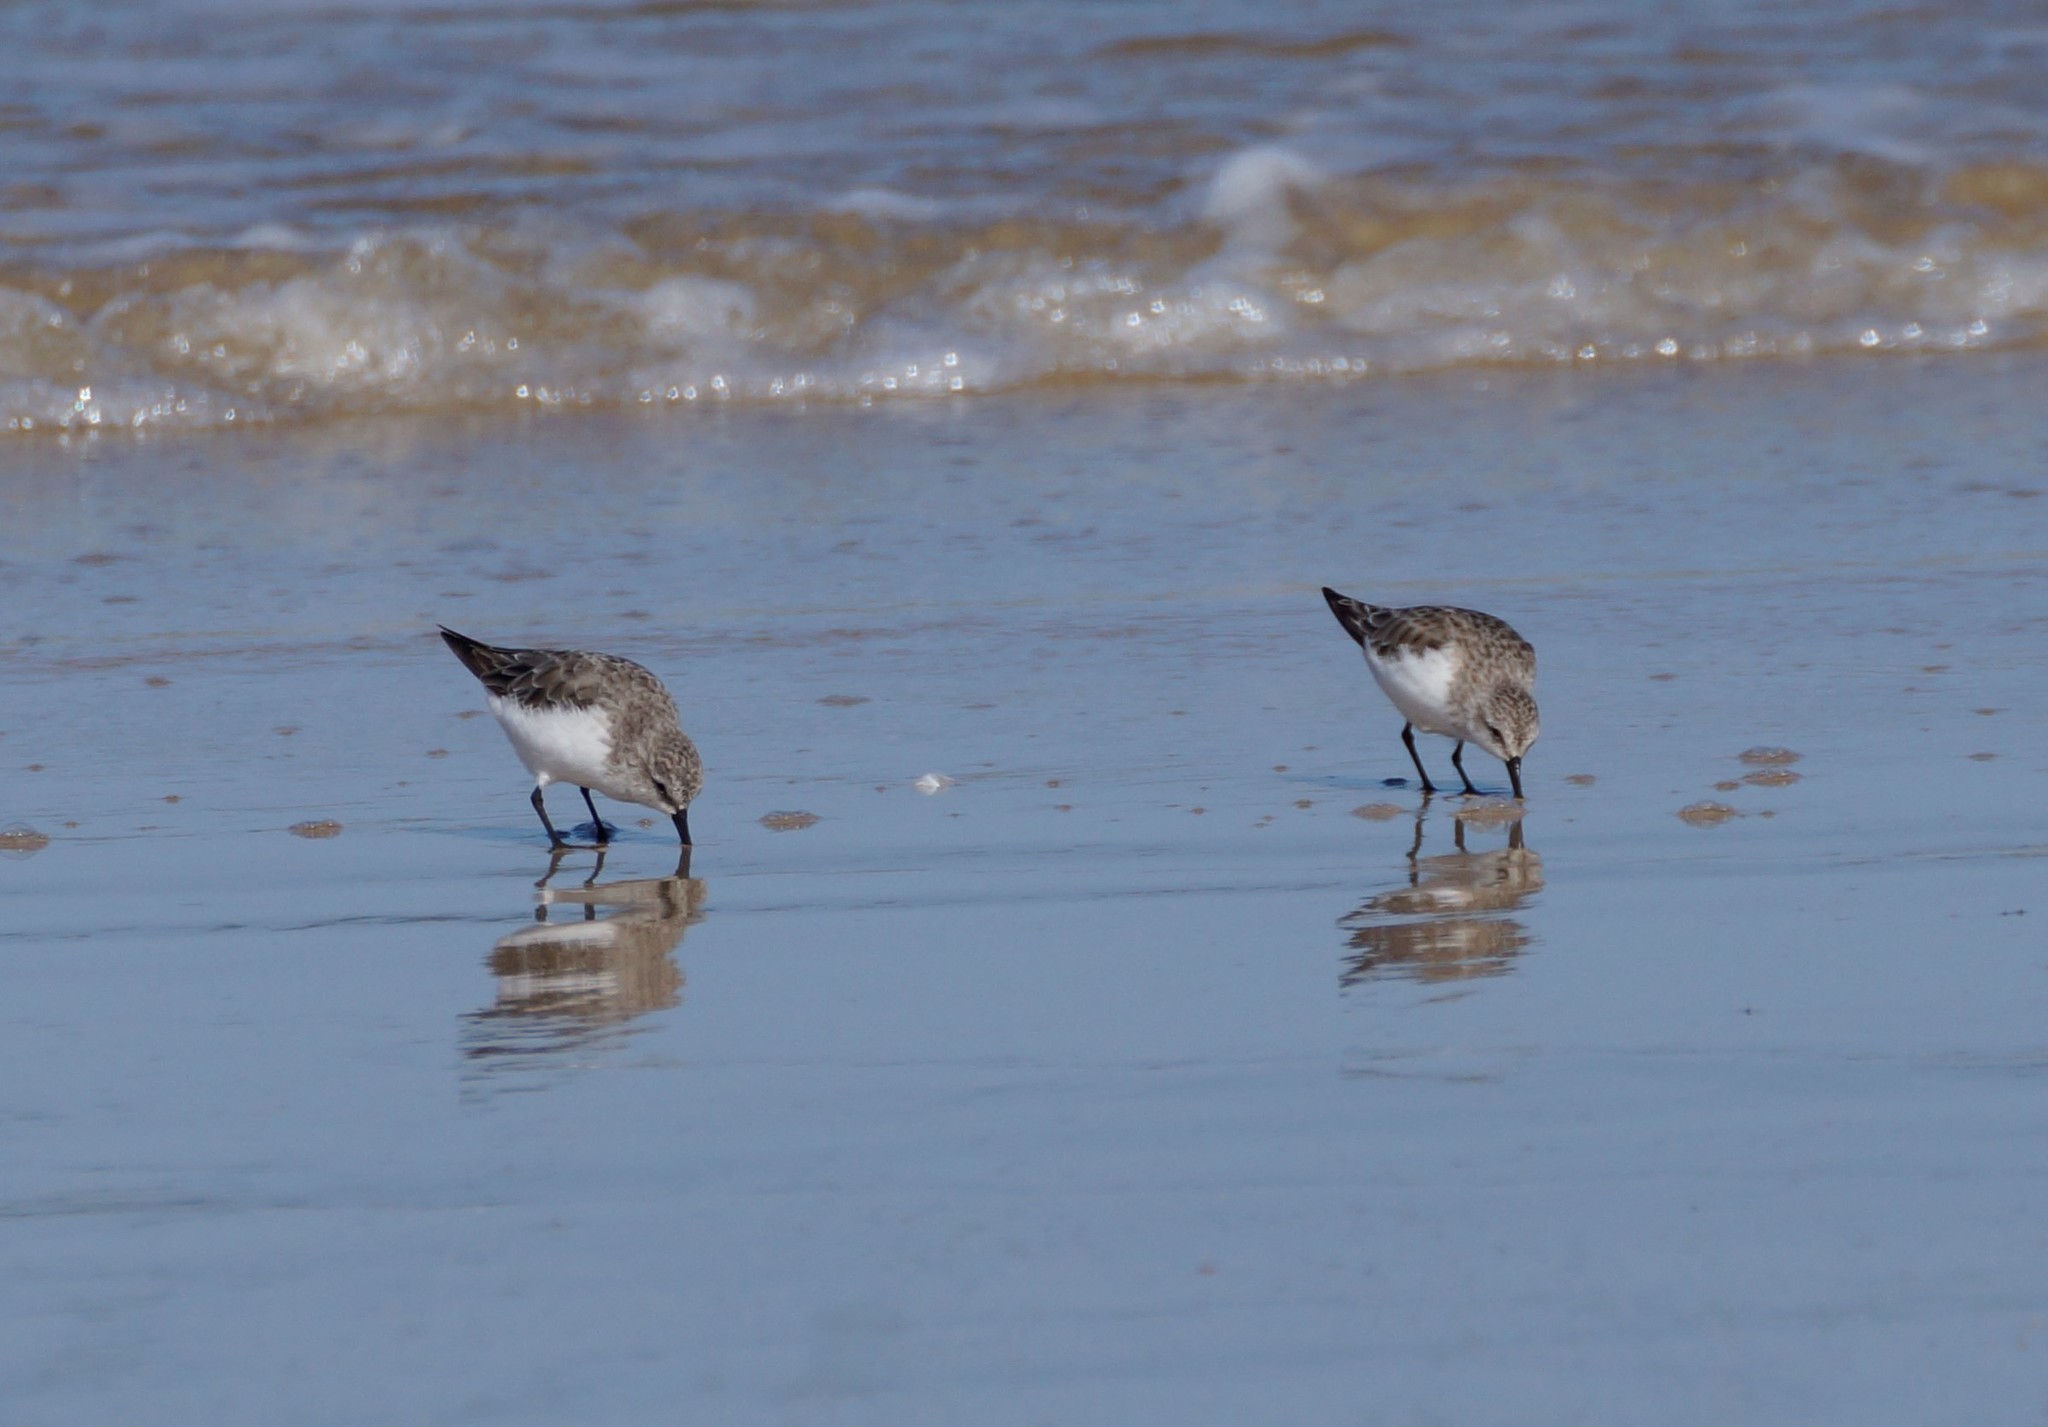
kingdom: Animalia
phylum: Chordata
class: Aves
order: Charadriiformes
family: Scolopacidae
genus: Calidris
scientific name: Calidris ruficollis
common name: Red-necked stint
